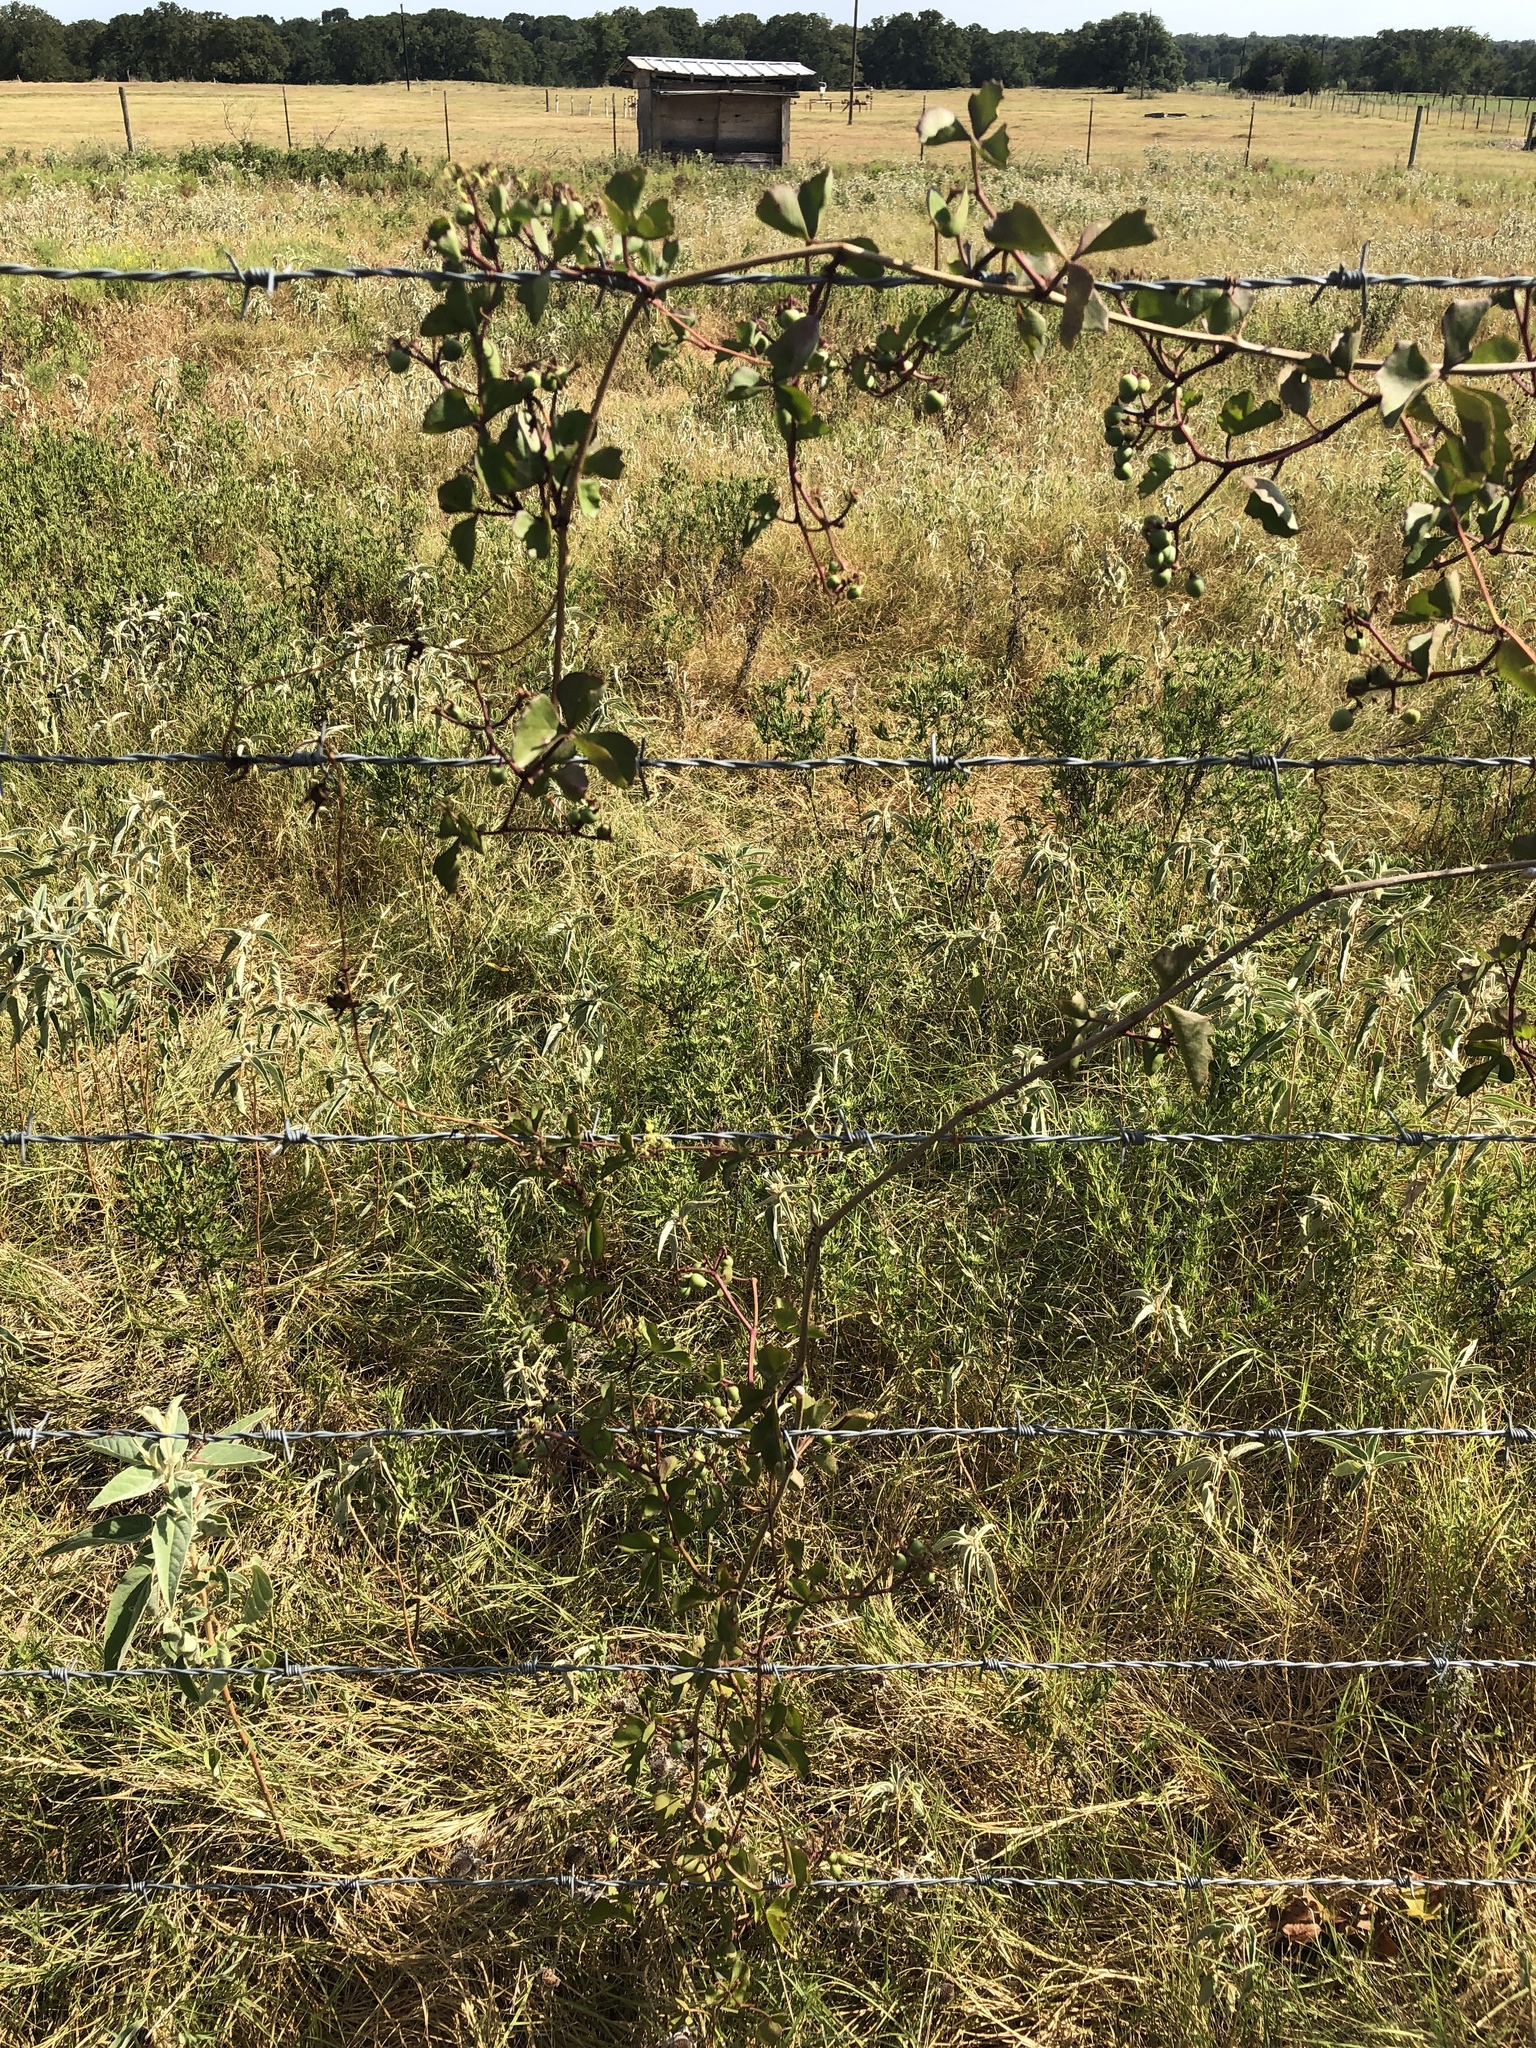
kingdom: Plantae
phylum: Tracheophyta
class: Magnoliopsida
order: Vitales
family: Vitaceae
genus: Cissus
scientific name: Cissus trifoliata
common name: Vine-sorrel
